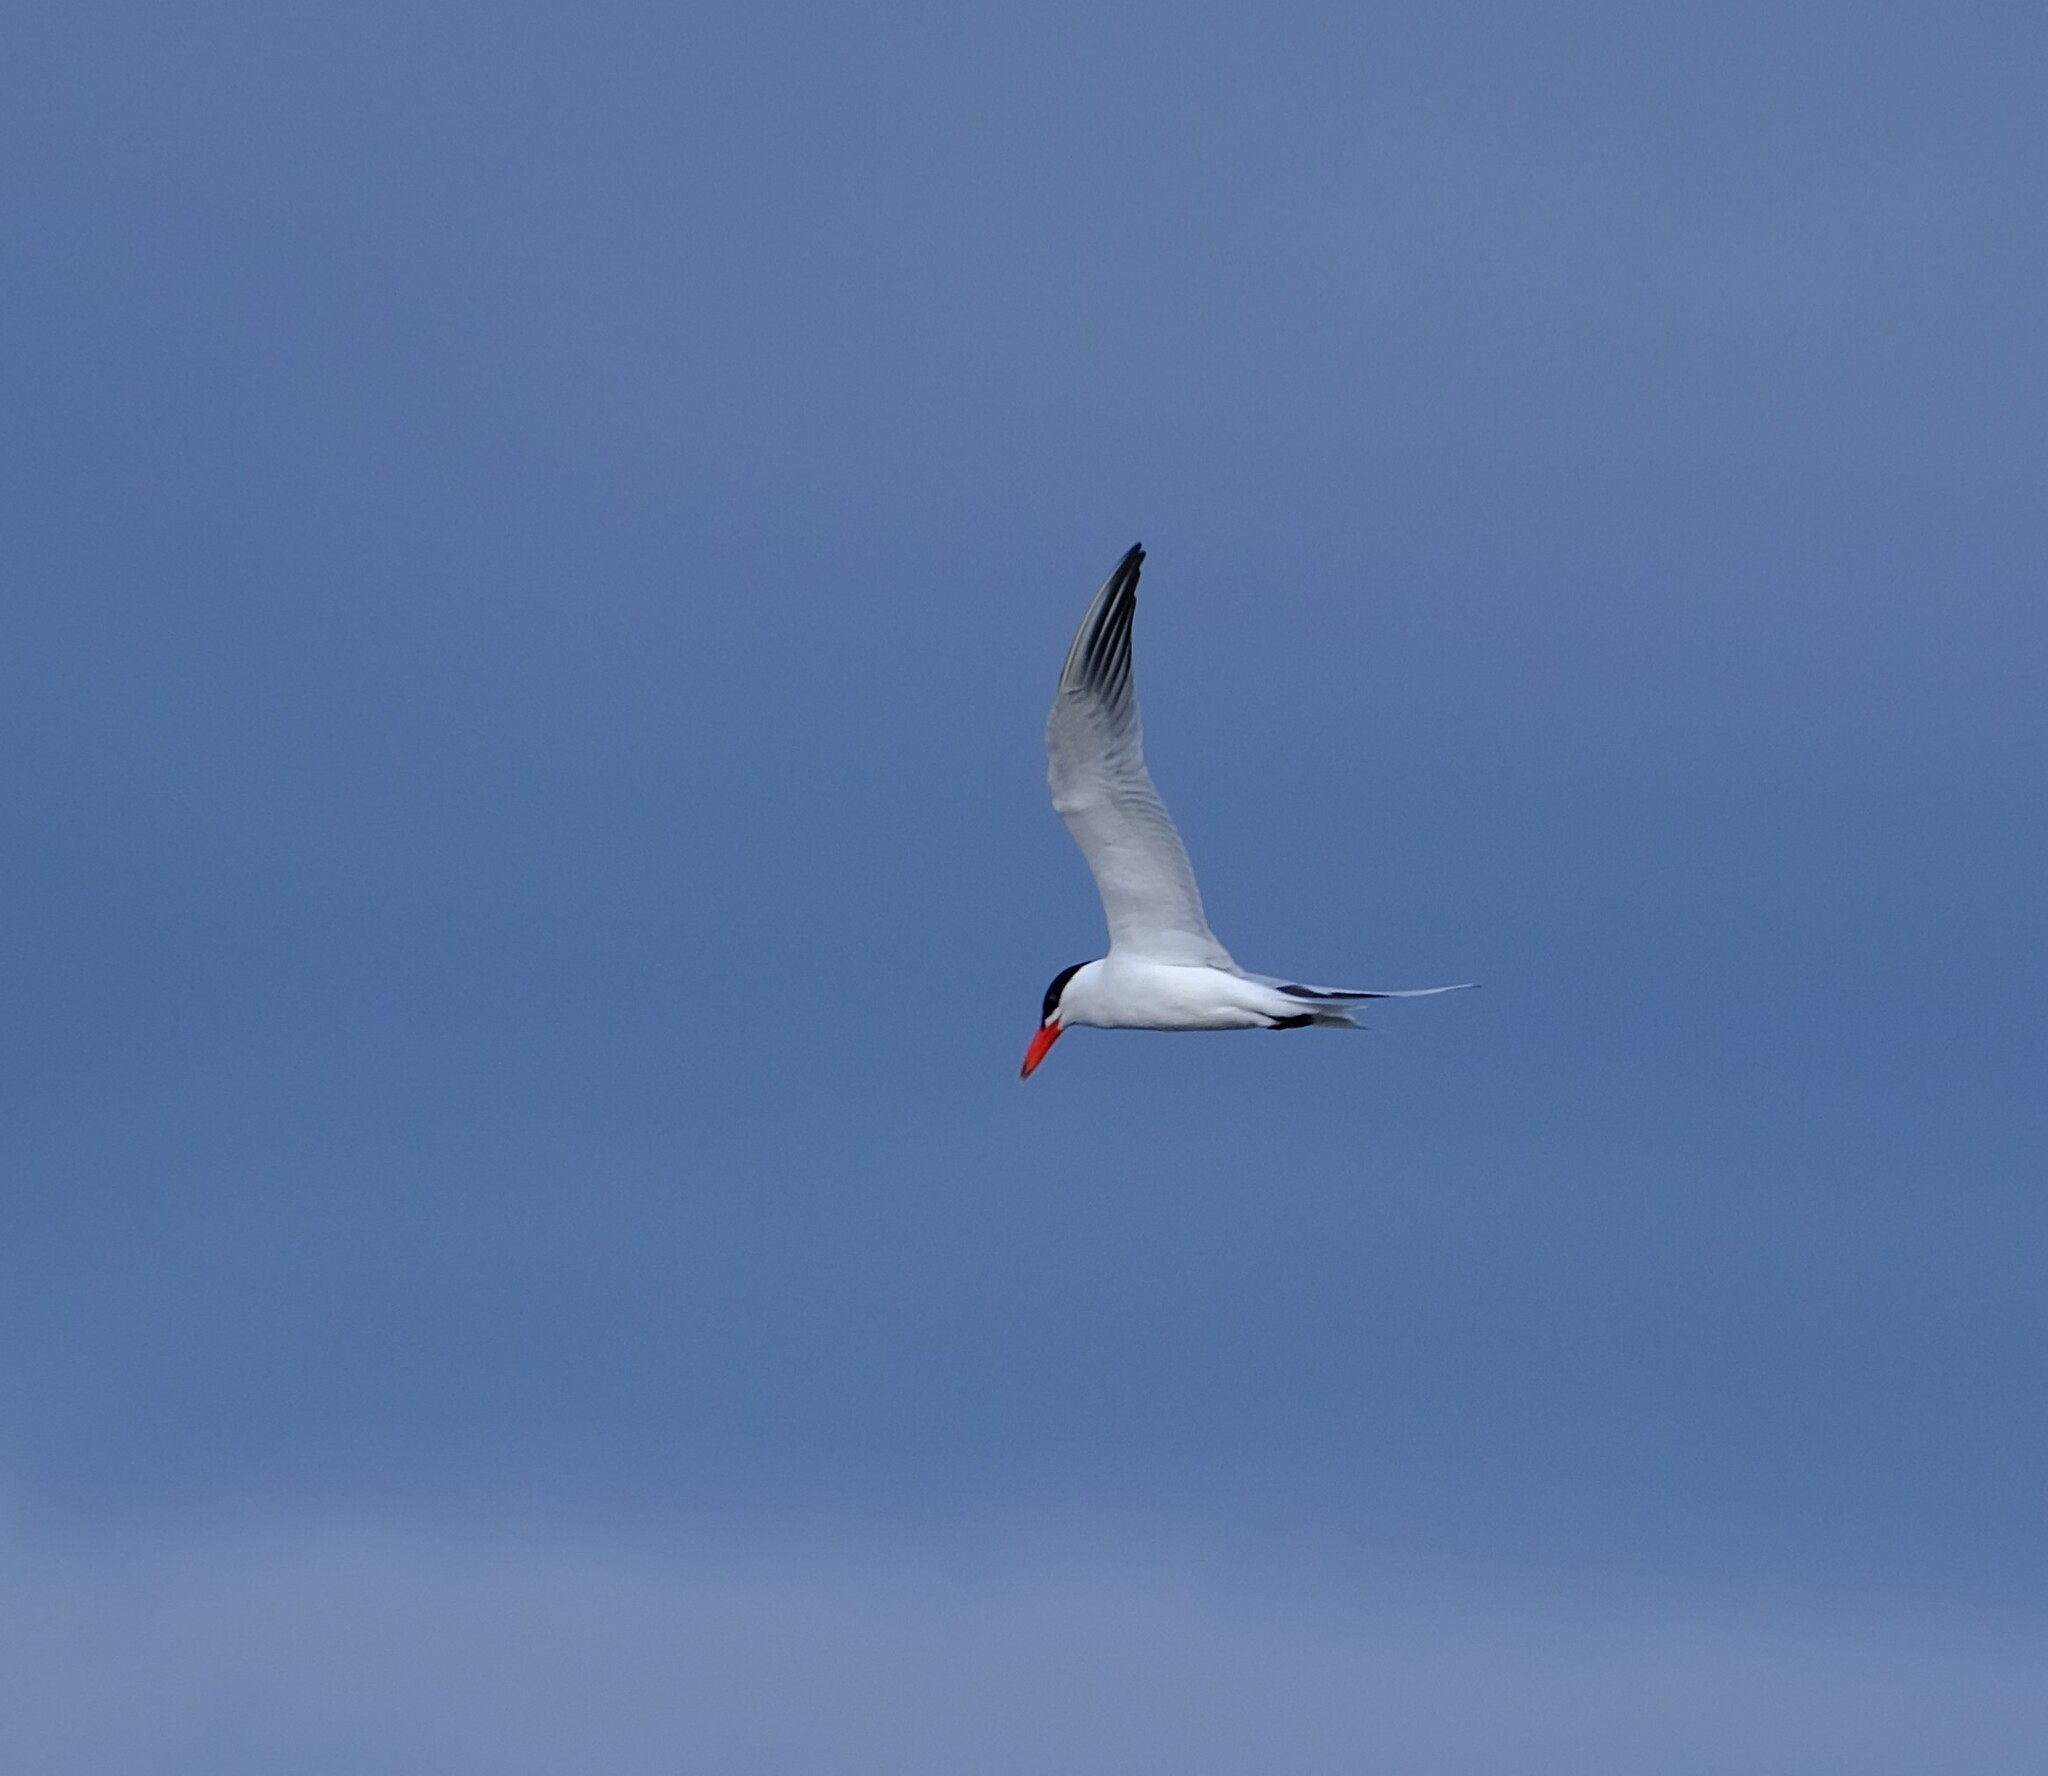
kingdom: Animalia
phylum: Chordata
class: Aves
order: Charadriiformes
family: Laridae
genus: Hydroprogne
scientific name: Hydroprogne caspia
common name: Caspian tern
